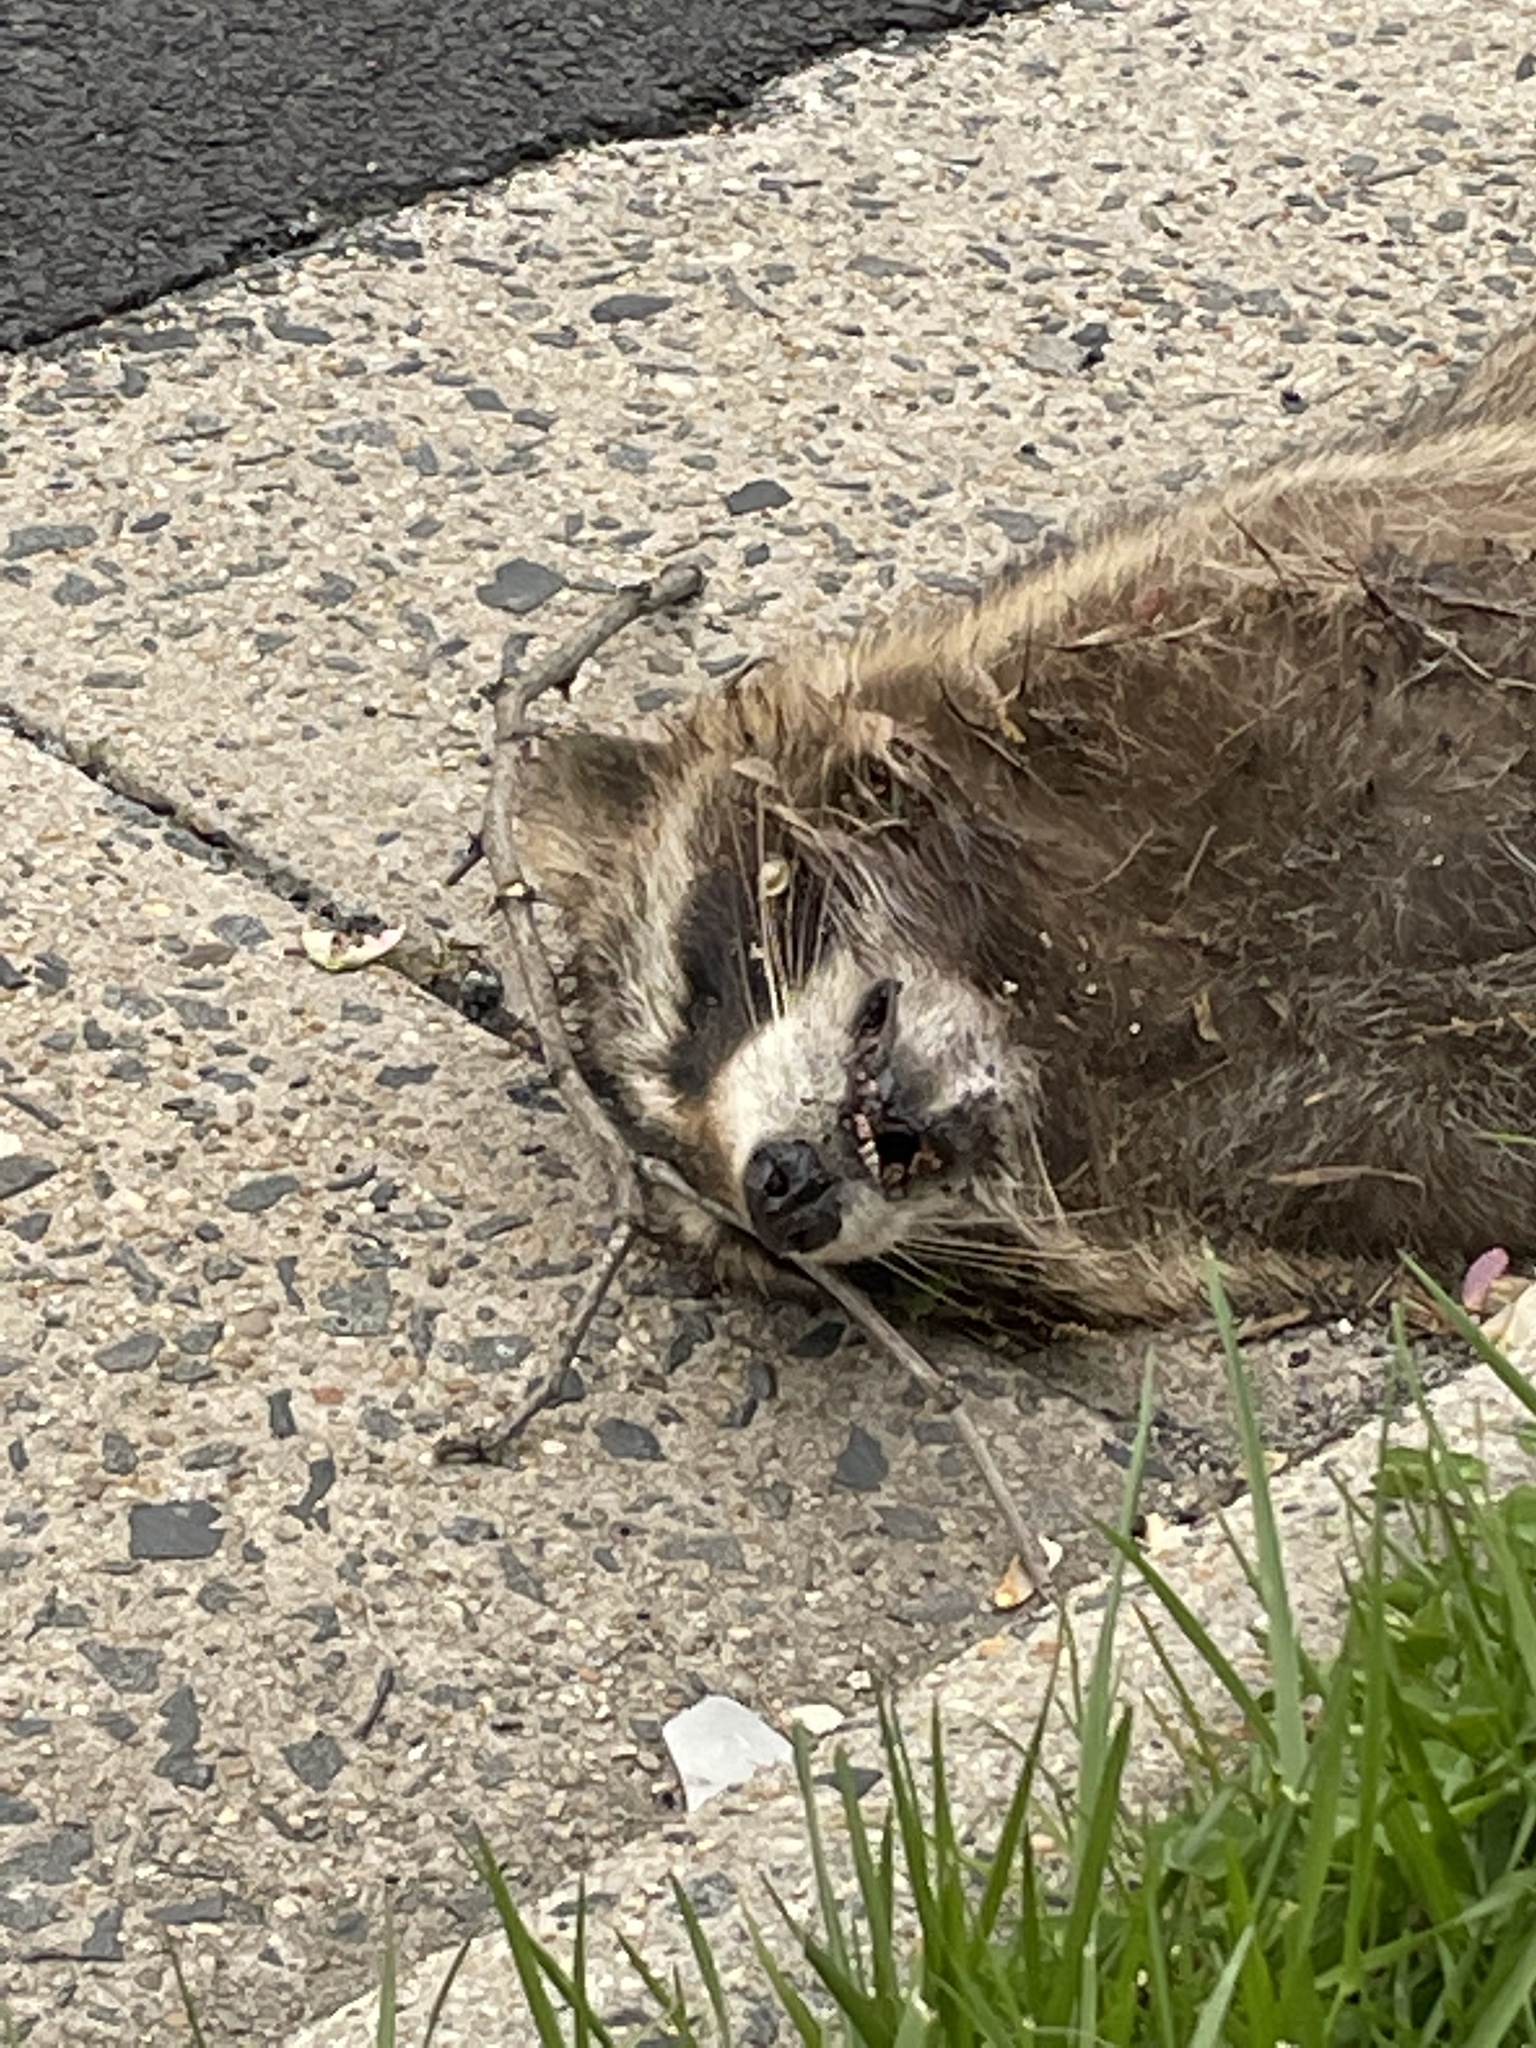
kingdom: Animalia
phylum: Chordata
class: Mammalia
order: Carnivora
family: Procyonidae
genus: Procyon
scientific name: Procyon lotor
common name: Raccoon
